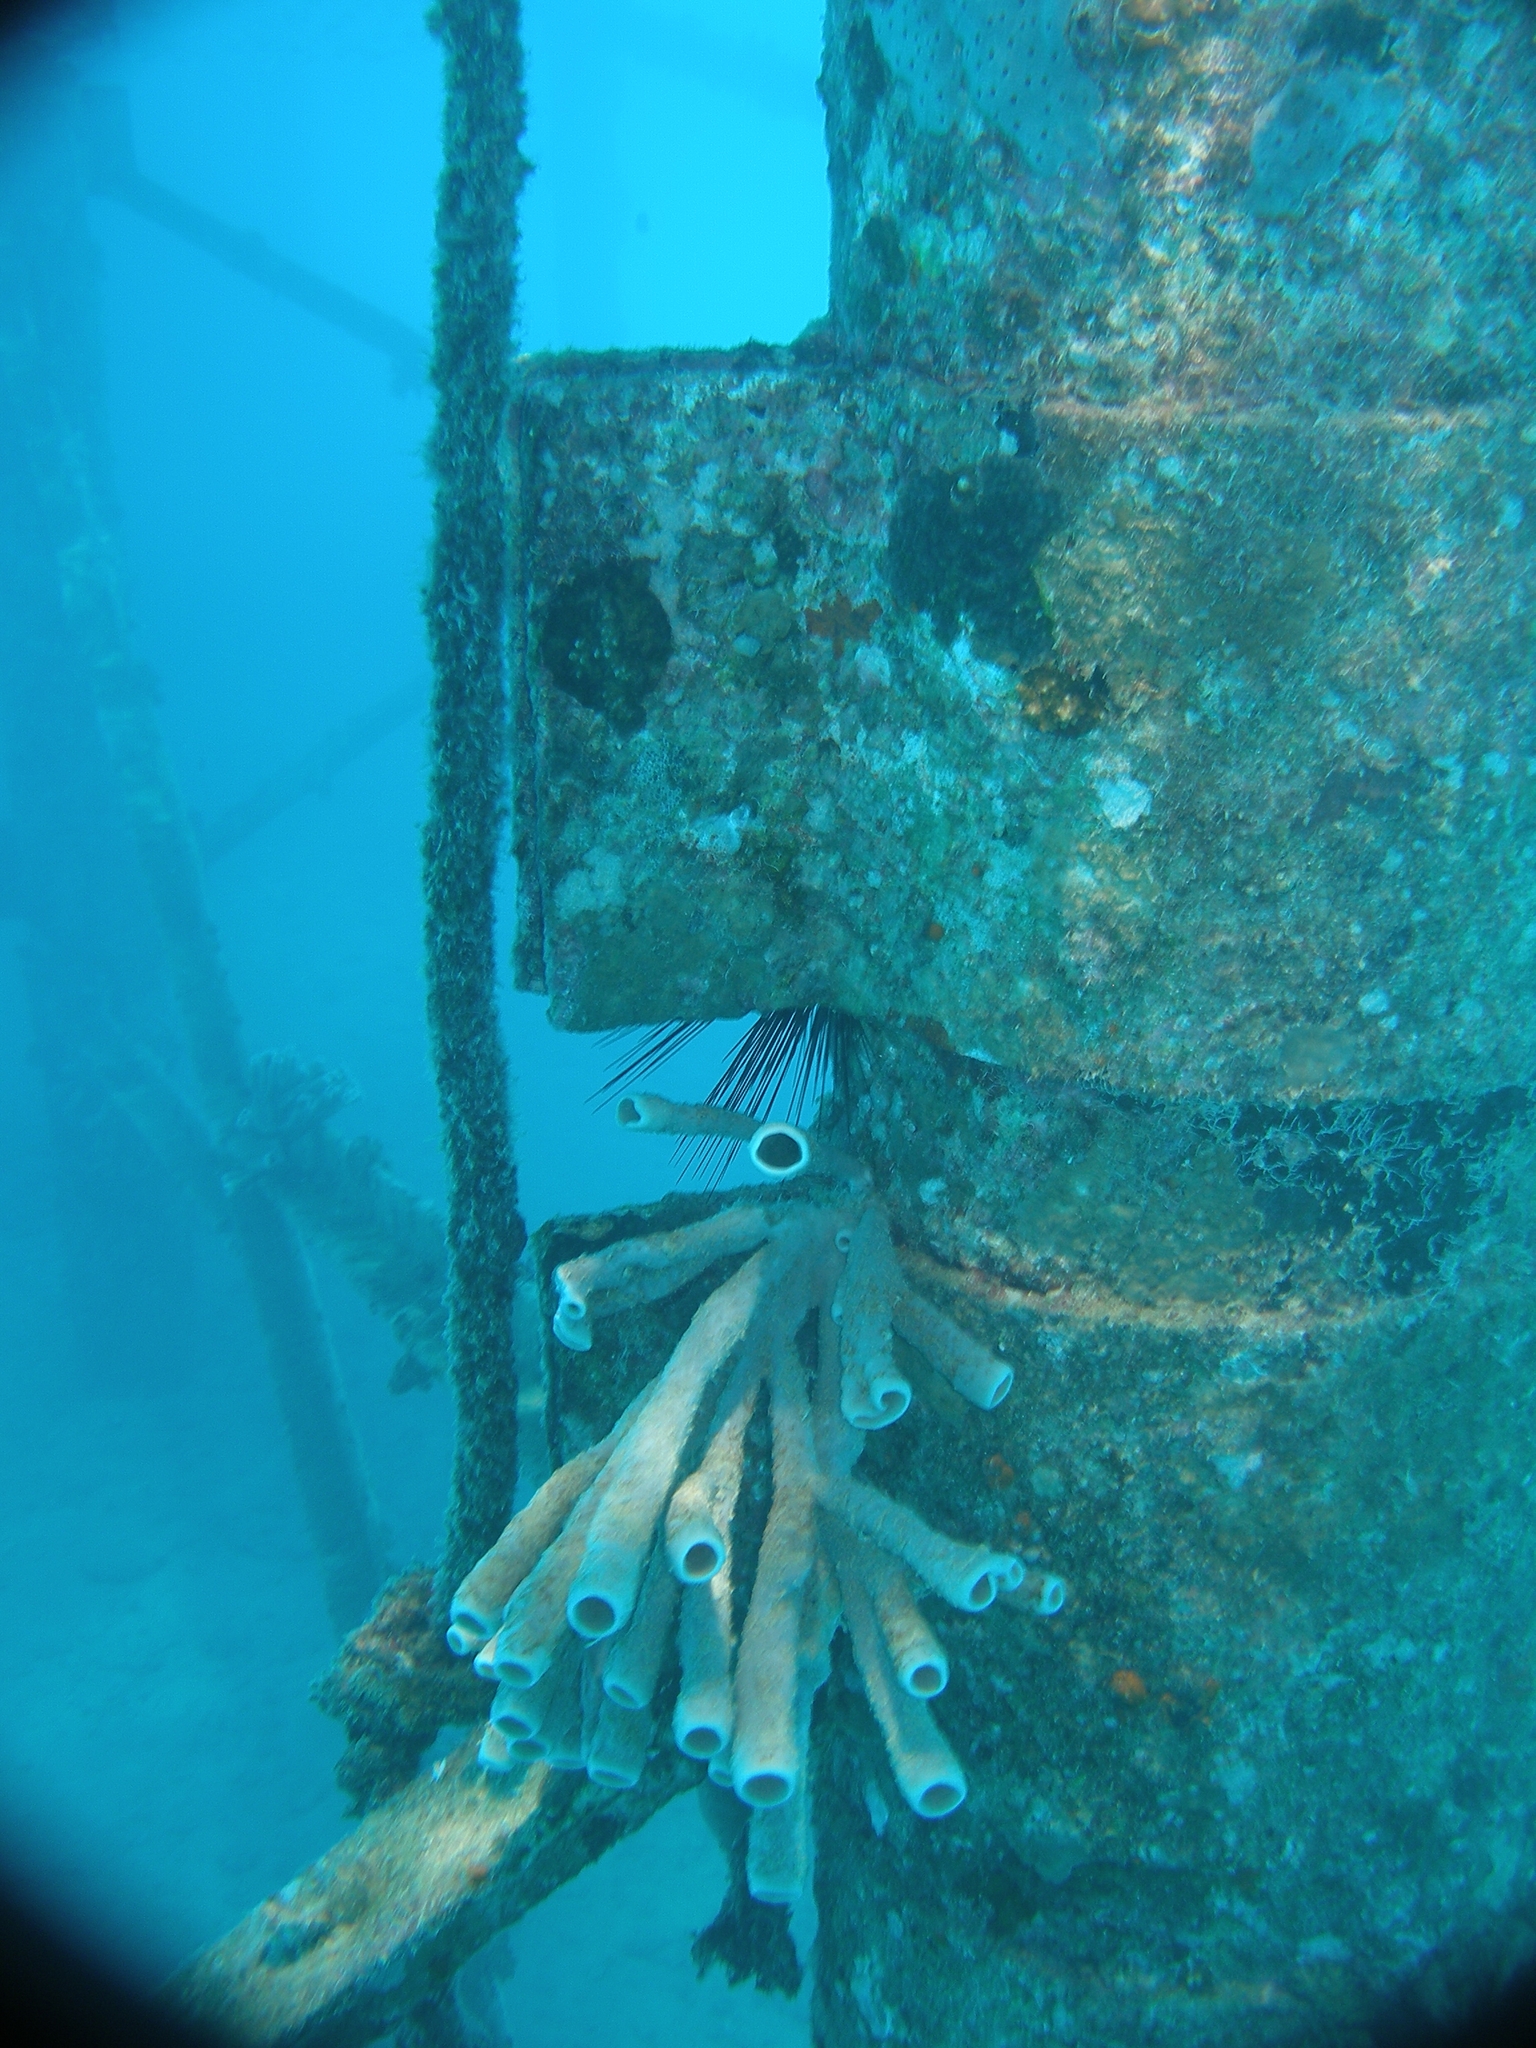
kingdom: Animalia
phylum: Porifera
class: Demospongiae
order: Haplosclerida
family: Callyspongiidae
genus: Callyspongia
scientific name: Callyspongia siphonella
